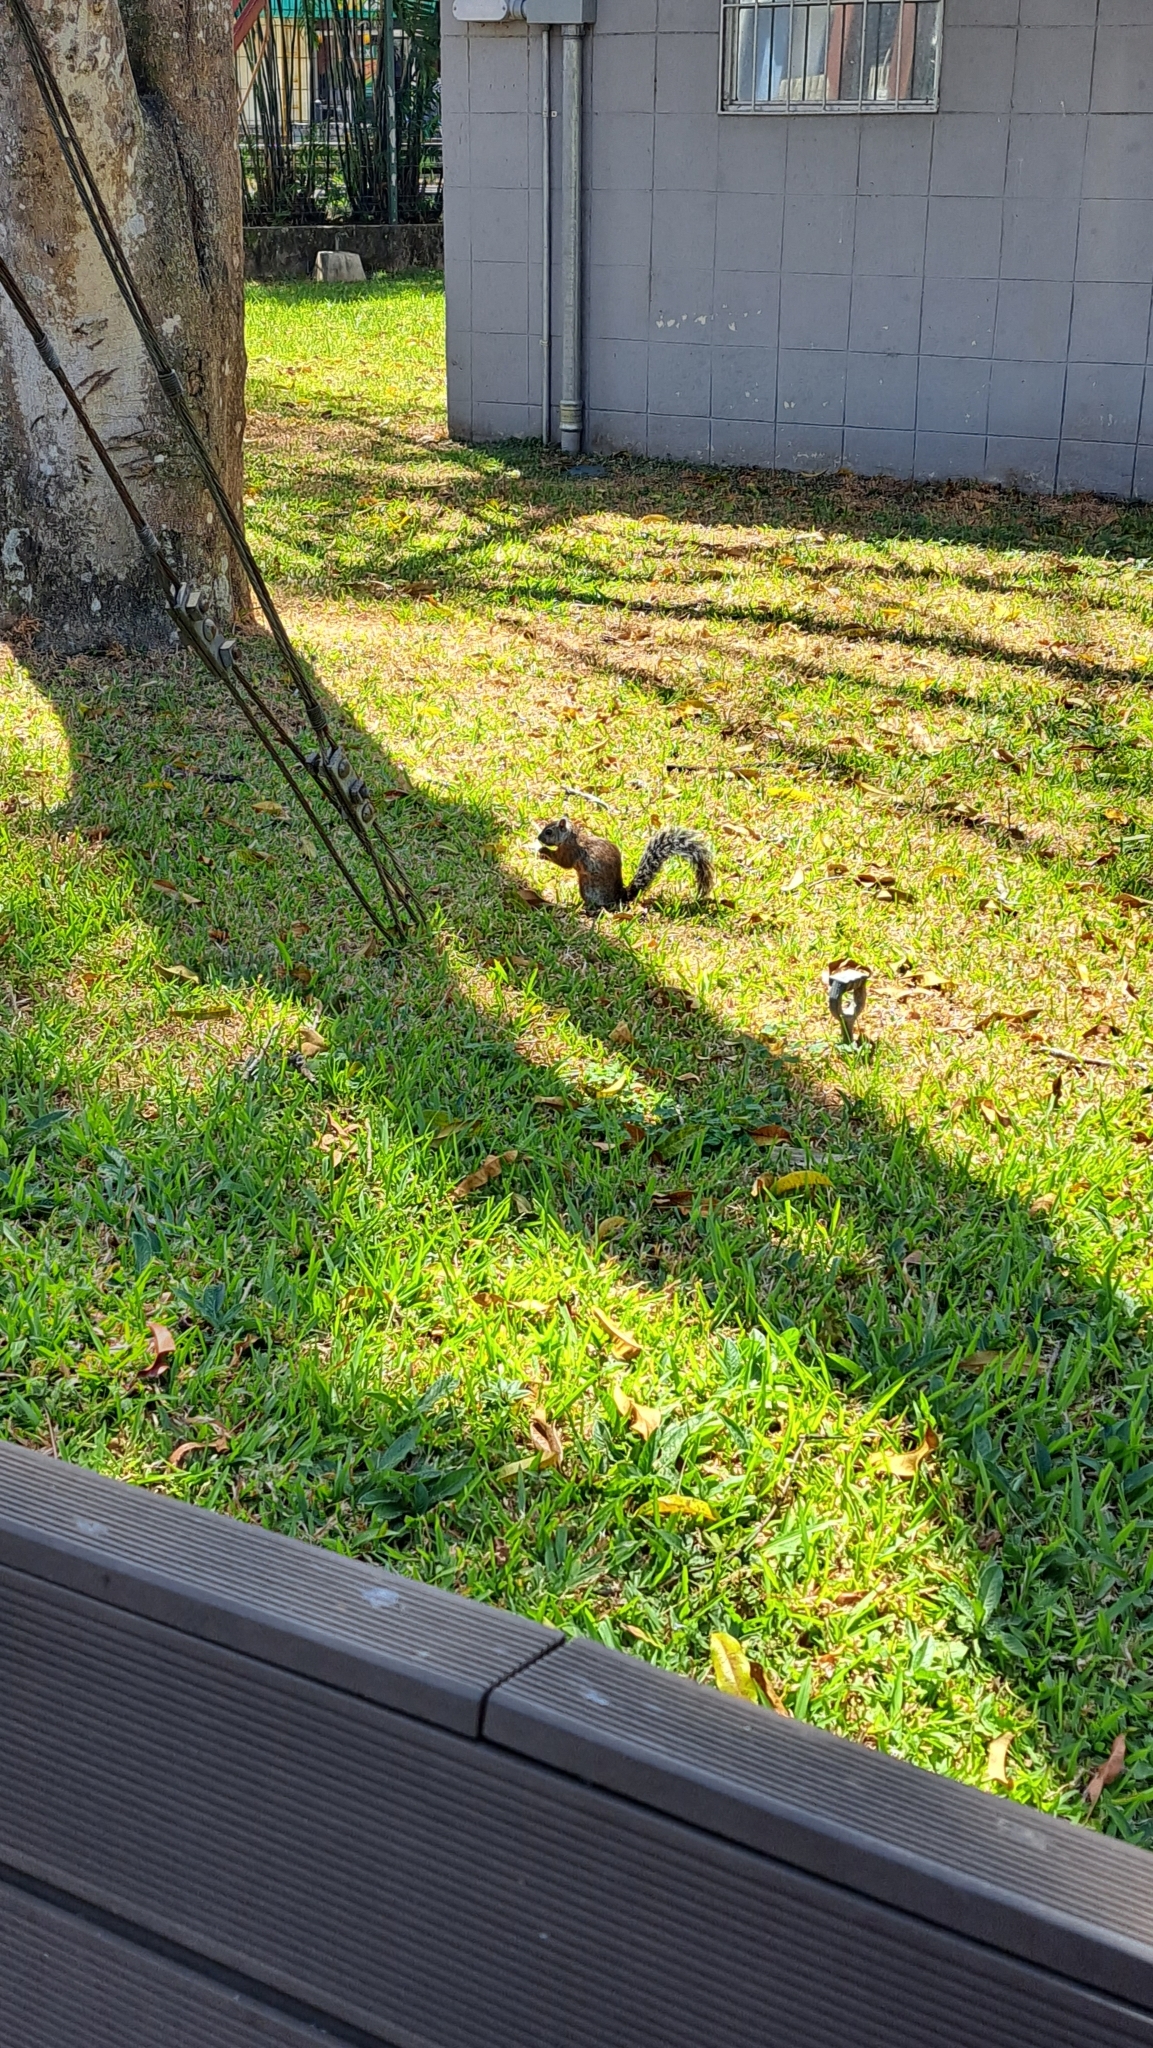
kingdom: Animalia
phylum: Chordata
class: Mammalia
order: Rodentia
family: Sciuridae
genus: Sciurus
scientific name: Sciurus variegatoides
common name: Variegated squirrel
